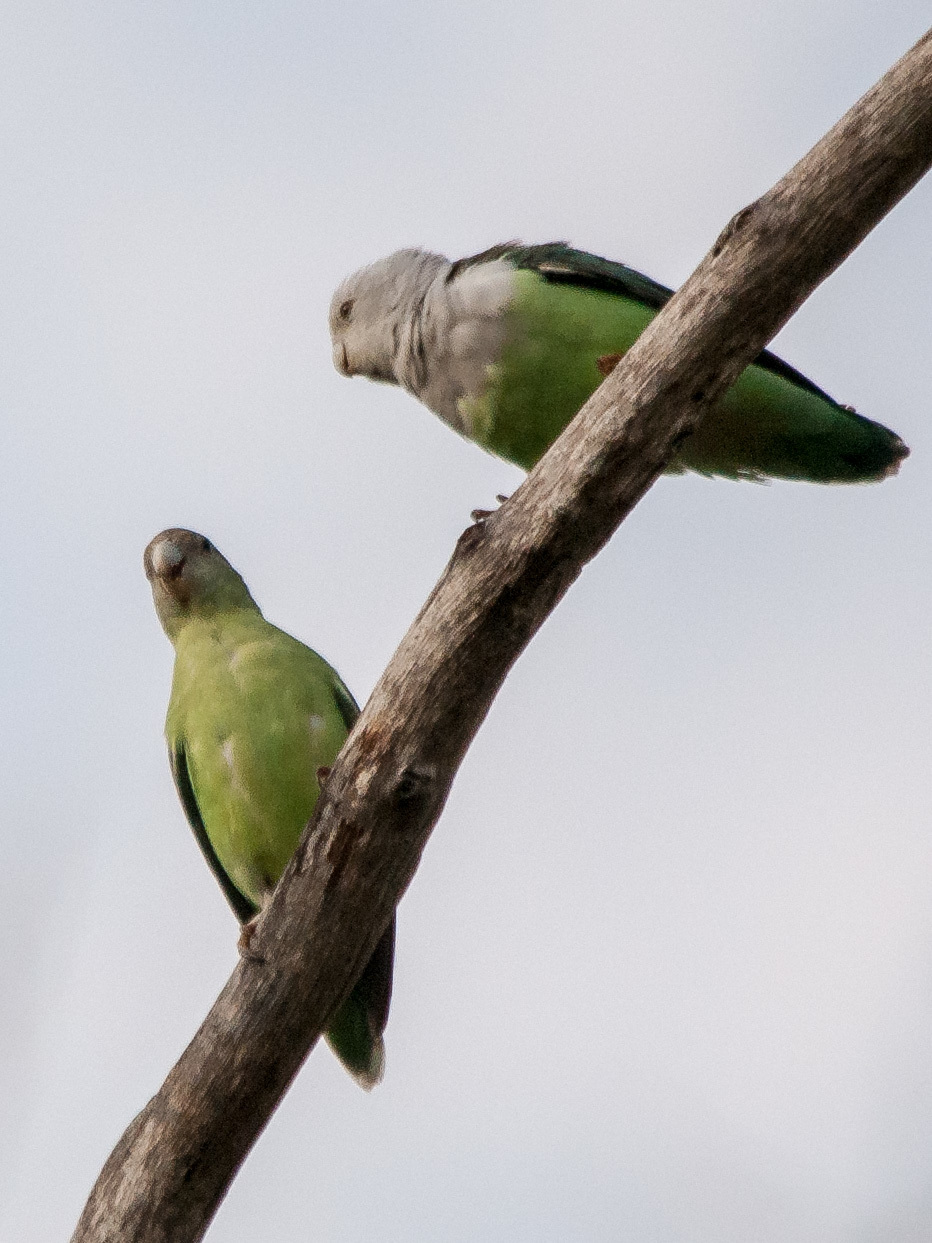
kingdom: Animalia
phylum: Chordata
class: Aves
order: Psittaciformes
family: Psittacidae
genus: Agapornis
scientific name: Agapornis canus
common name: Grey-headed lovebird
